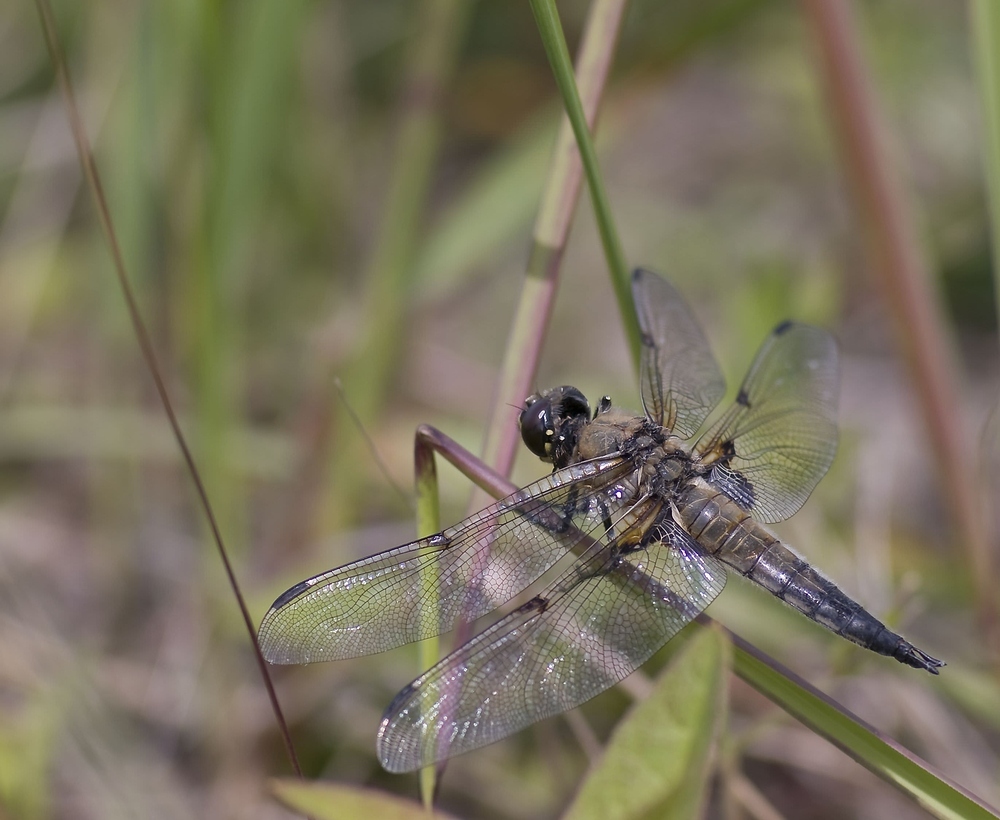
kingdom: Animalia
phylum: Arthropoda
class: Insecta
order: Odonata
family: Libellulidae
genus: Libellula
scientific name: Libellula quadrimaculata
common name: Four-spotted chaser
